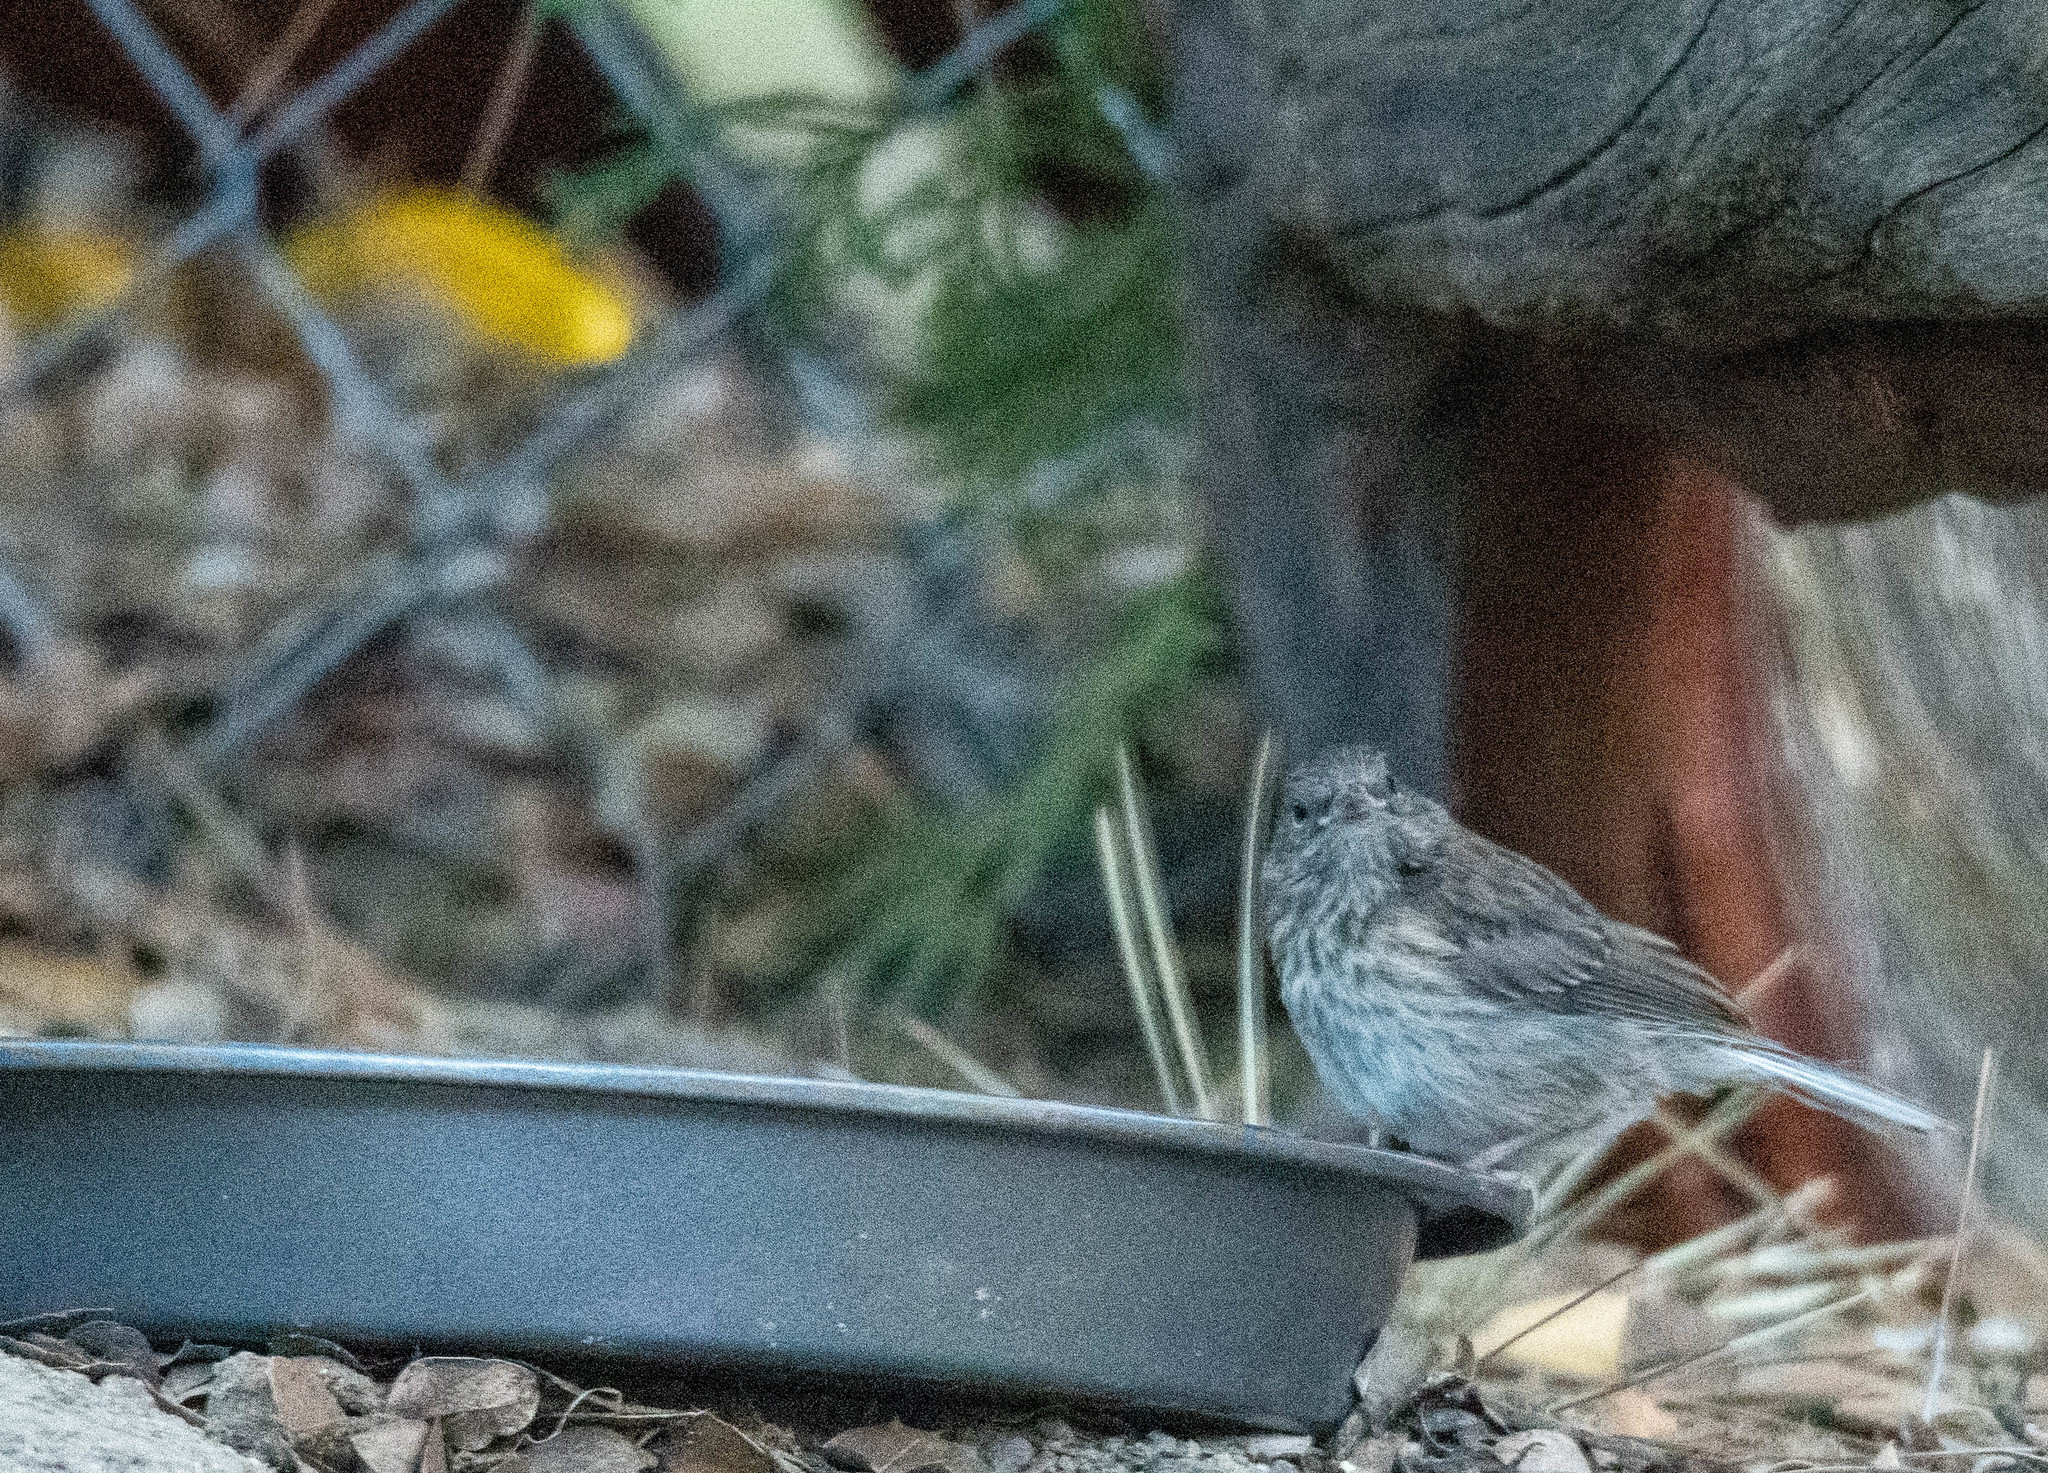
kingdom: Animalia
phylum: Chordata
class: Aves
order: Passeriformes
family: Passerellidae
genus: Junco
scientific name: Junco hyemalis
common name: Dark-eyed junco
